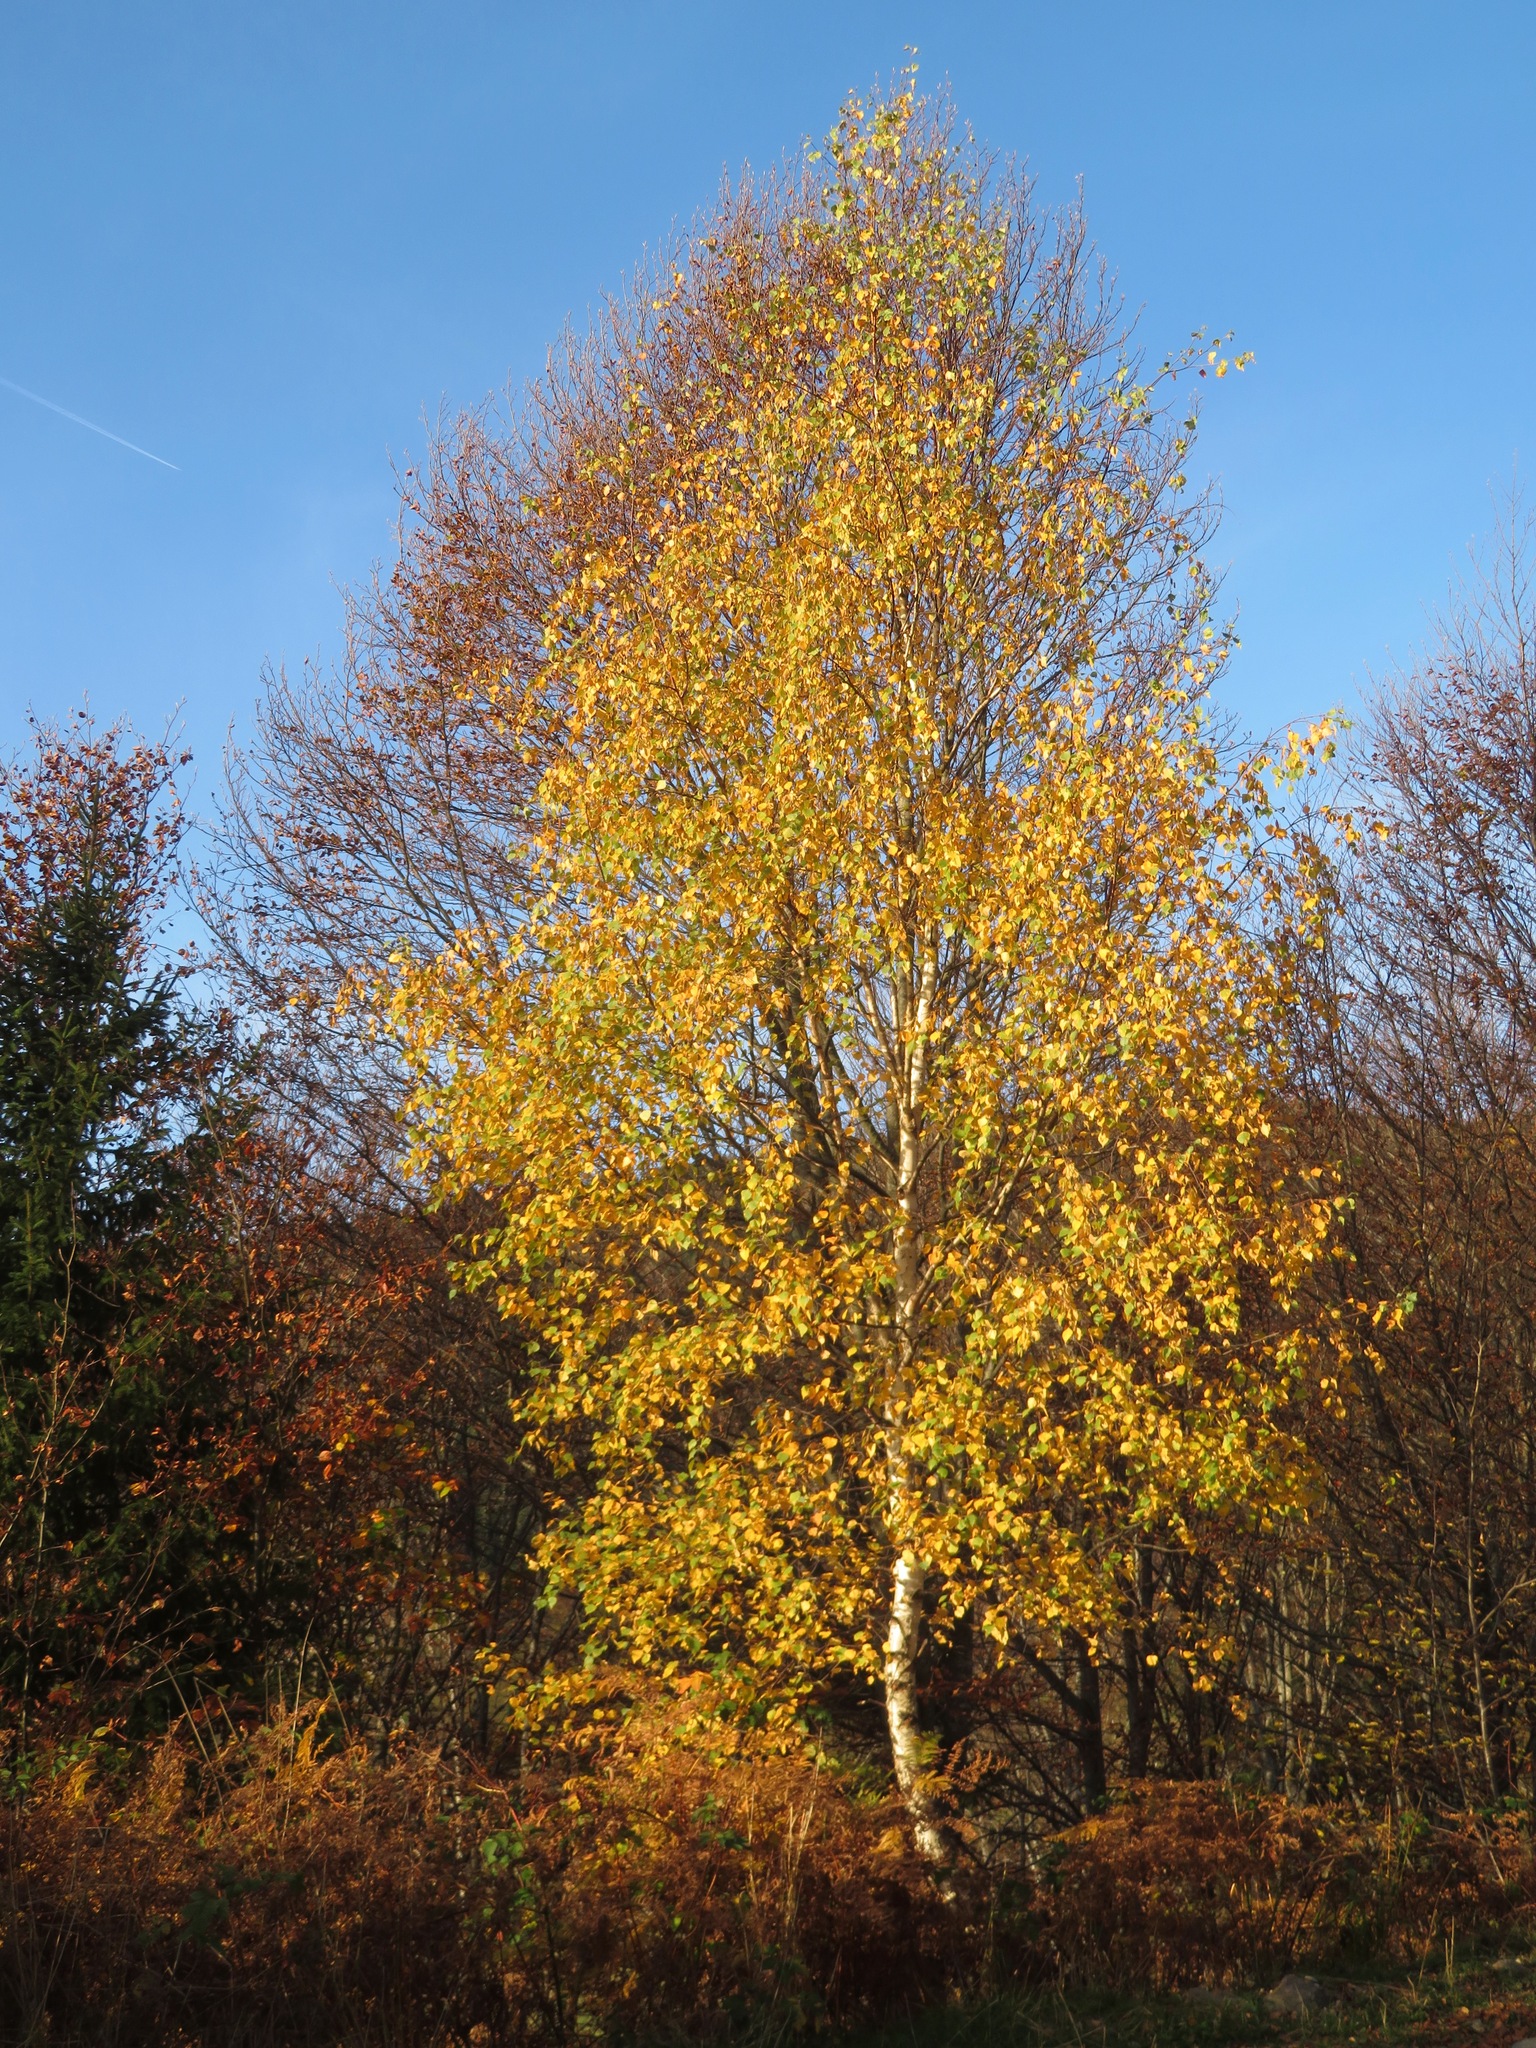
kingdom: Plantae
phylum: Tracheophyta
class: Magnoliopsida
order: Fagales
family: Betulaceae
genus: Betula
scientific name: Betula pendula
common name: Silver birch
